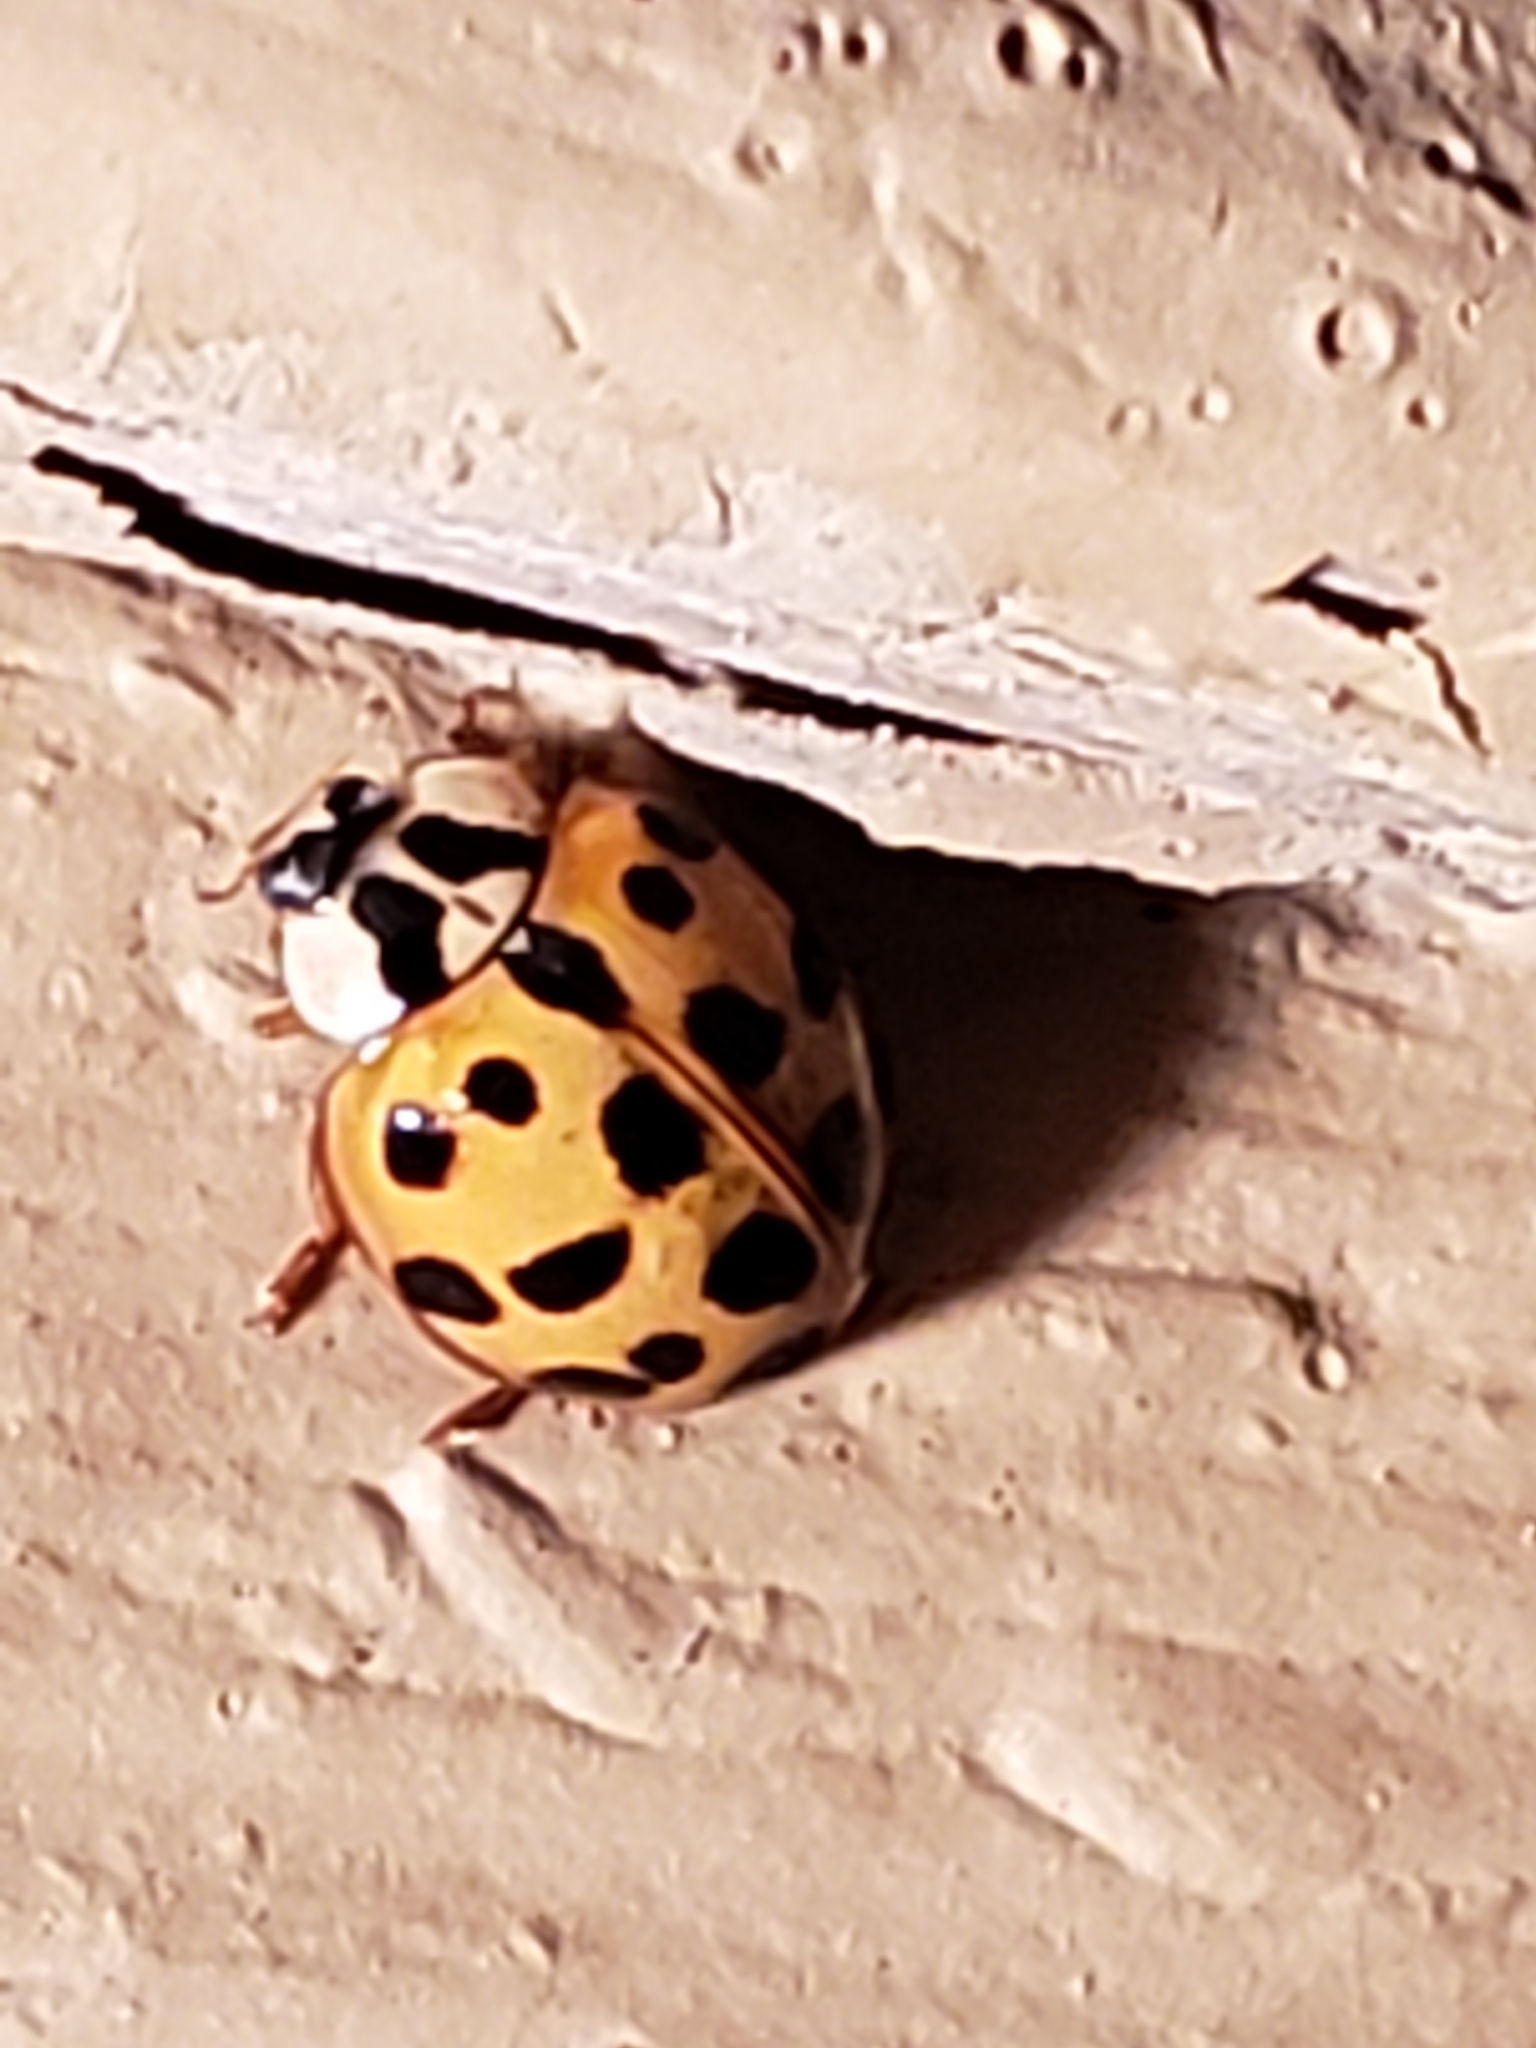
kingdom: Animalia
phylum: Arthropoda
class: Insecta
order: Coleoptera
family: Coccinellidae
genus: Harmonia
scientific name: Harmonia axyridis
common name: Harlequin ladybird
